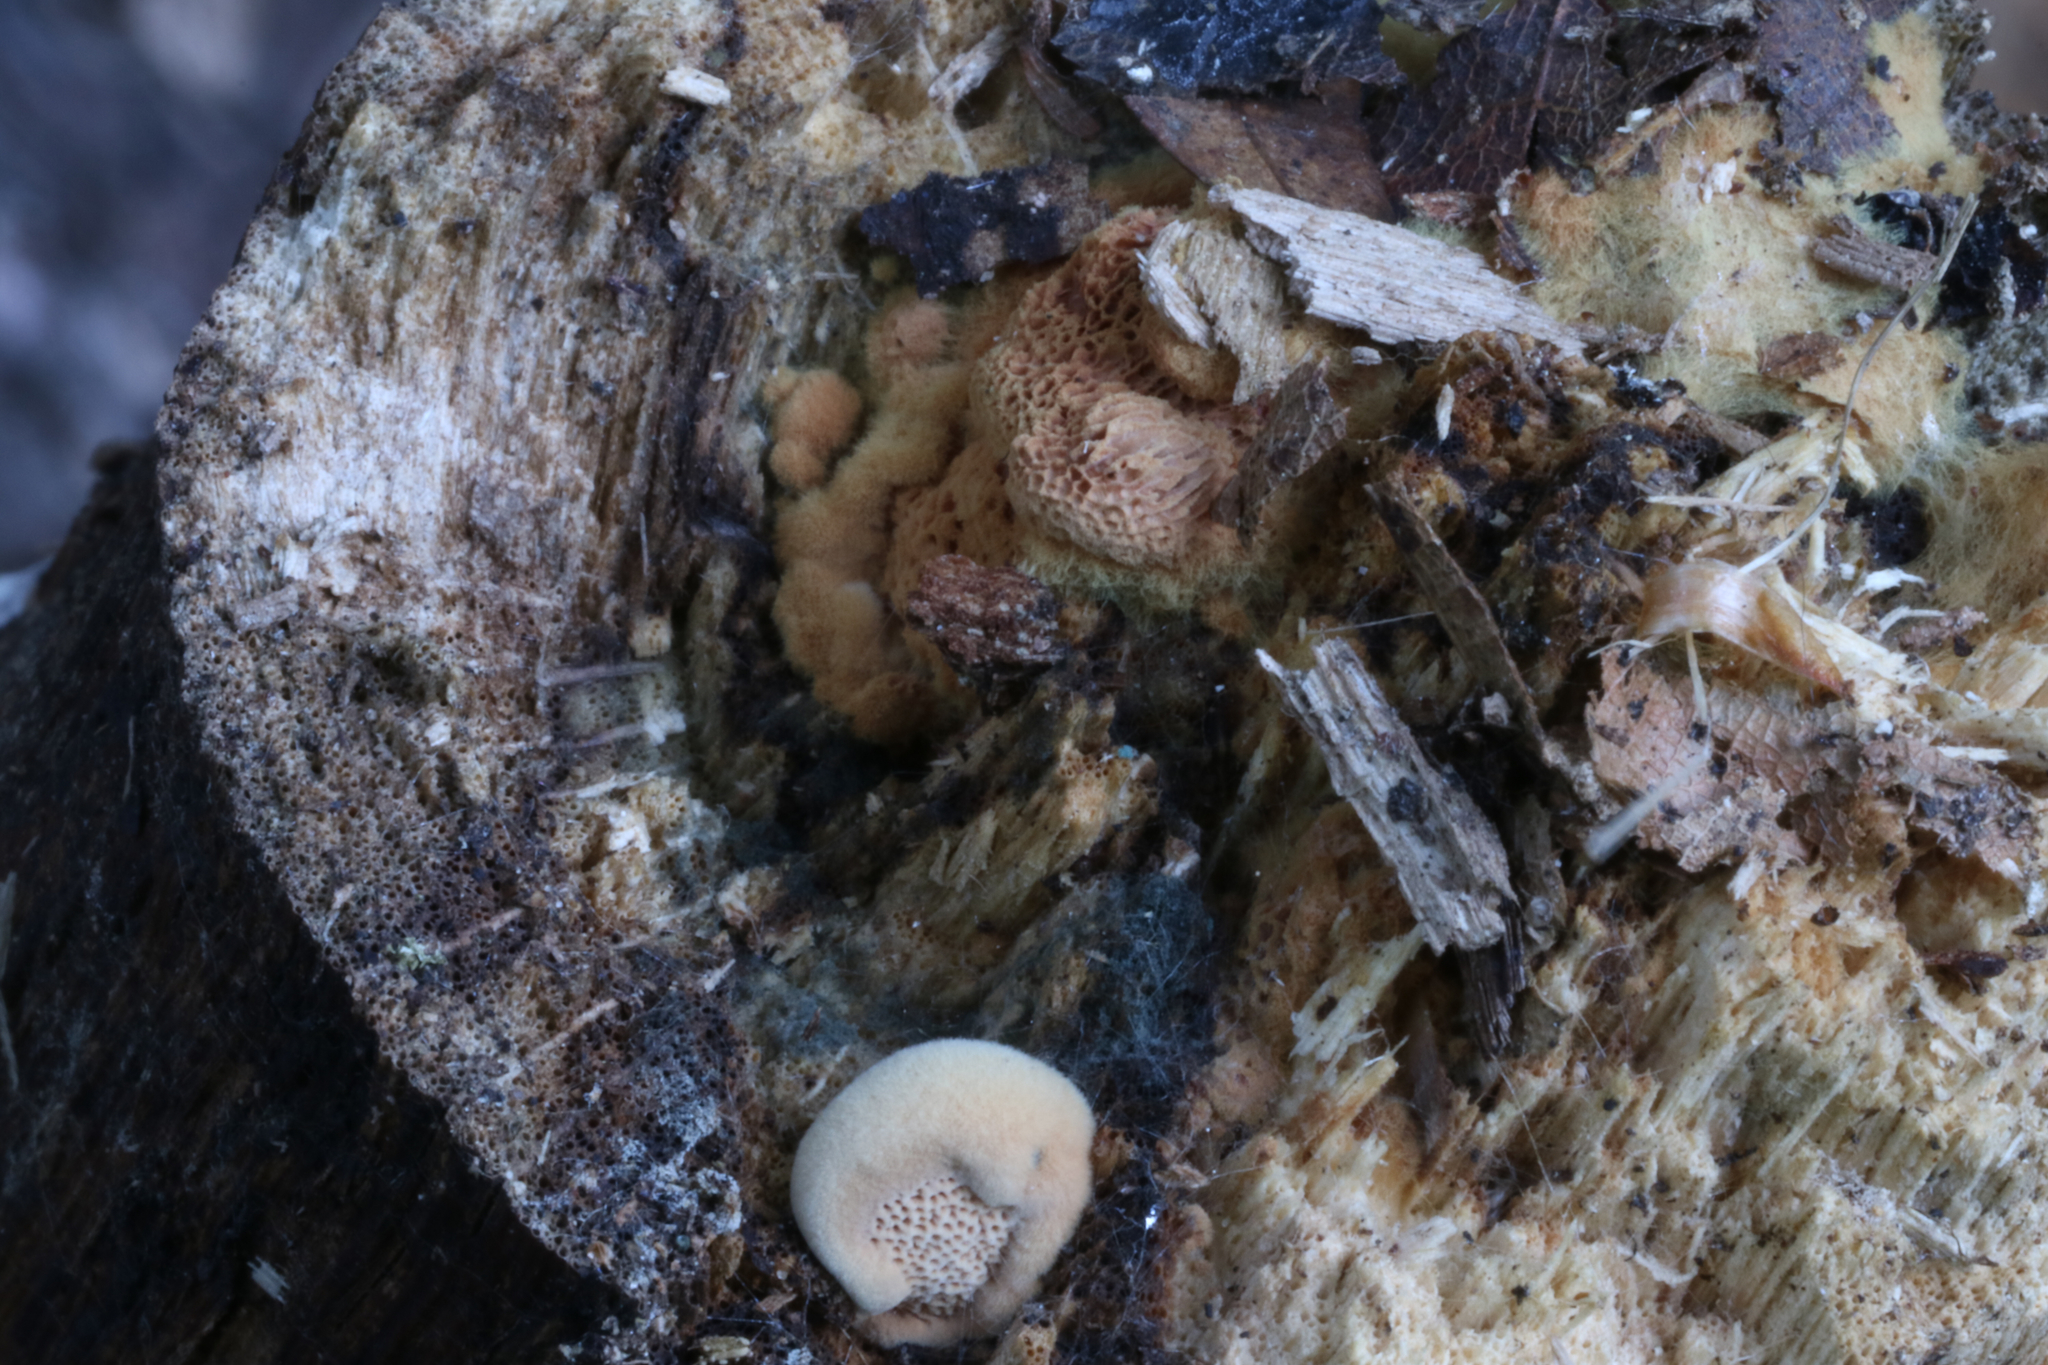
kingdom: Fungi
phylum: Basidiomycota
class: Agaricomycetes
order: Polyporales
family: Phanerochaetaceae
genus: Hapalopilus
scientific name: Hapalopilus rutilans
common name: Tender nesting polypore
